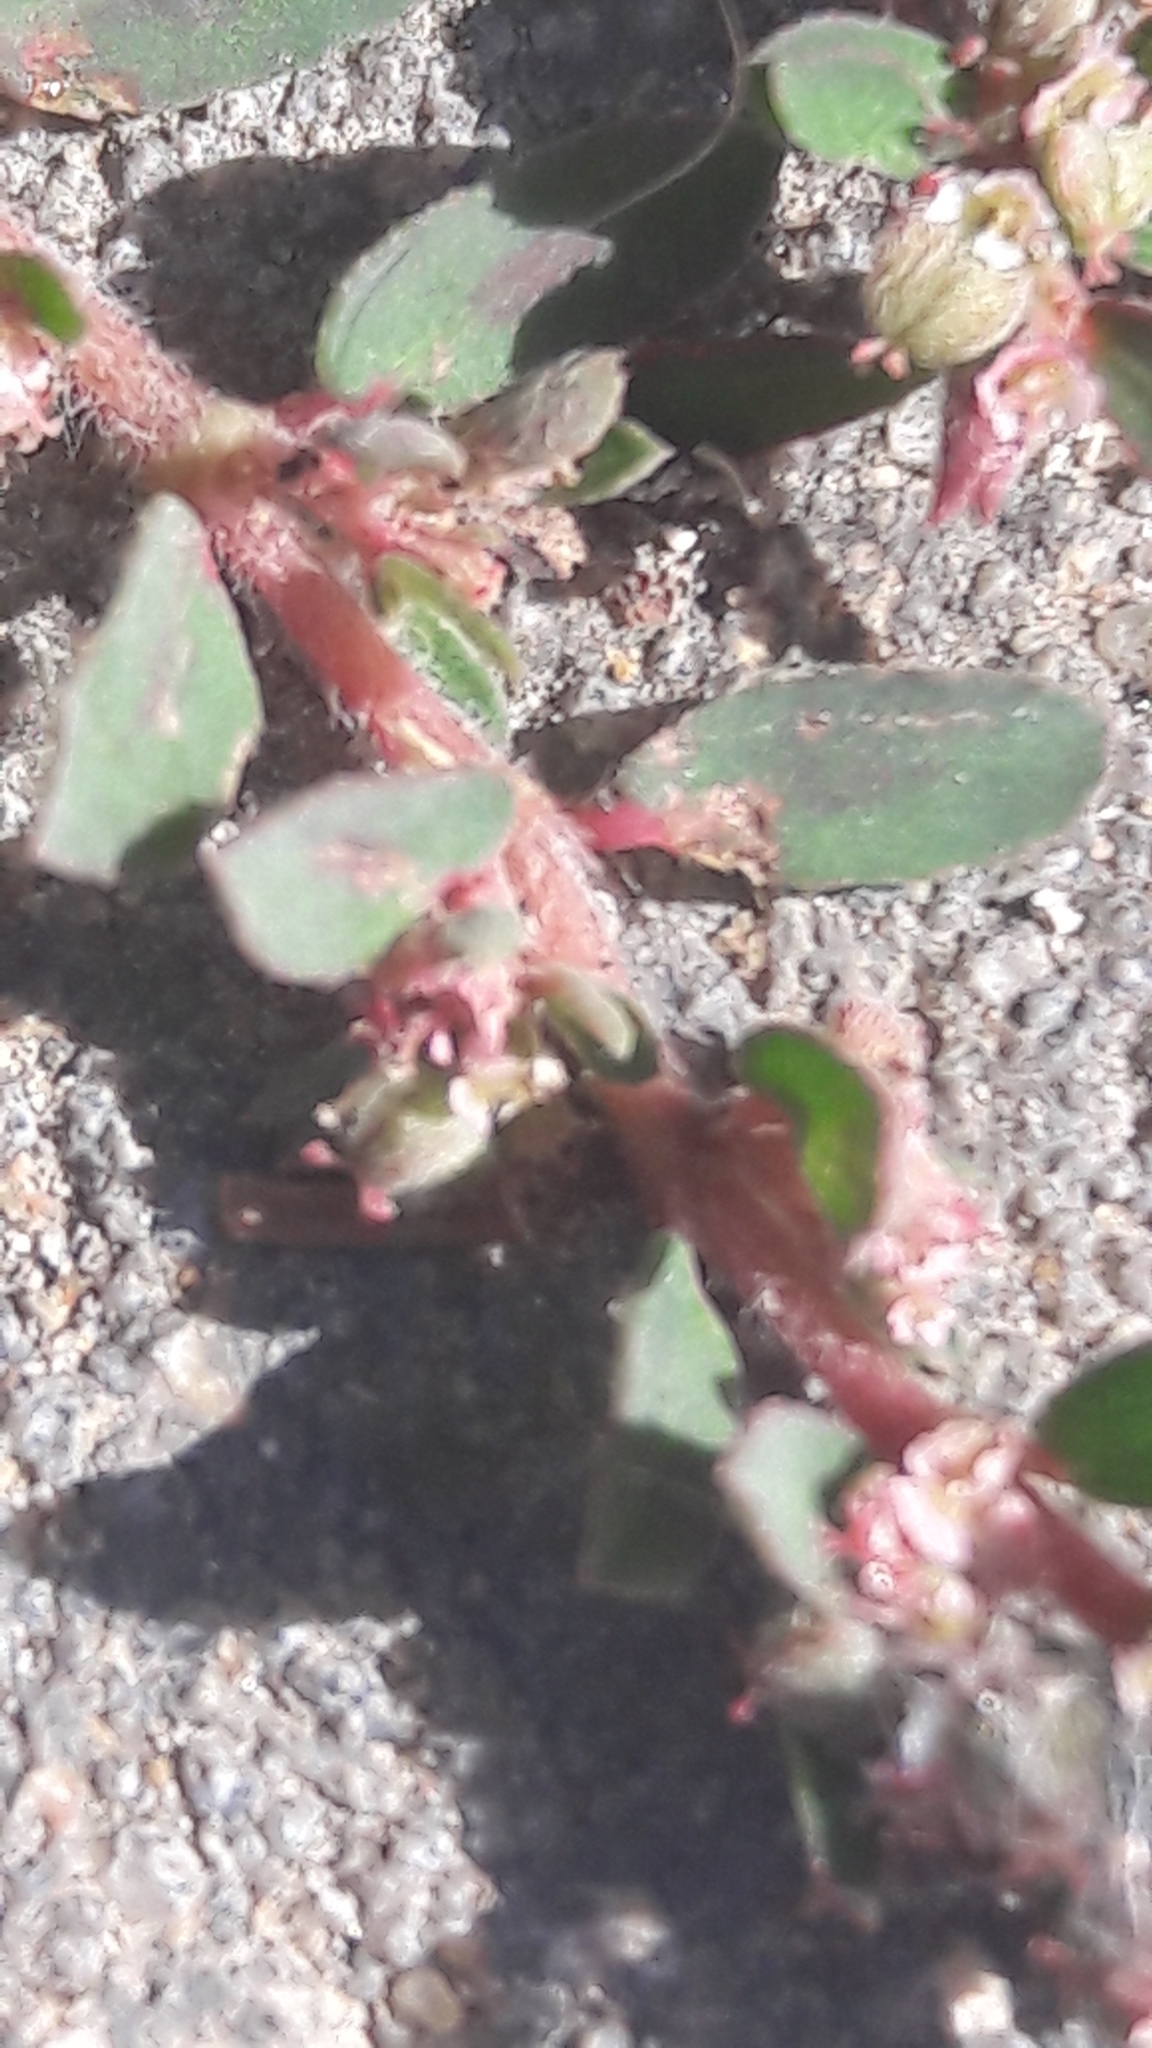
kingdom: Plantae
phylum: Tracheophyta
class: Magnoliopsida
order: Malpighiales
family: Euphorbiaceae
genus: Euphorbia
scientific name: Euphorbia maculata
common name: Spotted spurge
